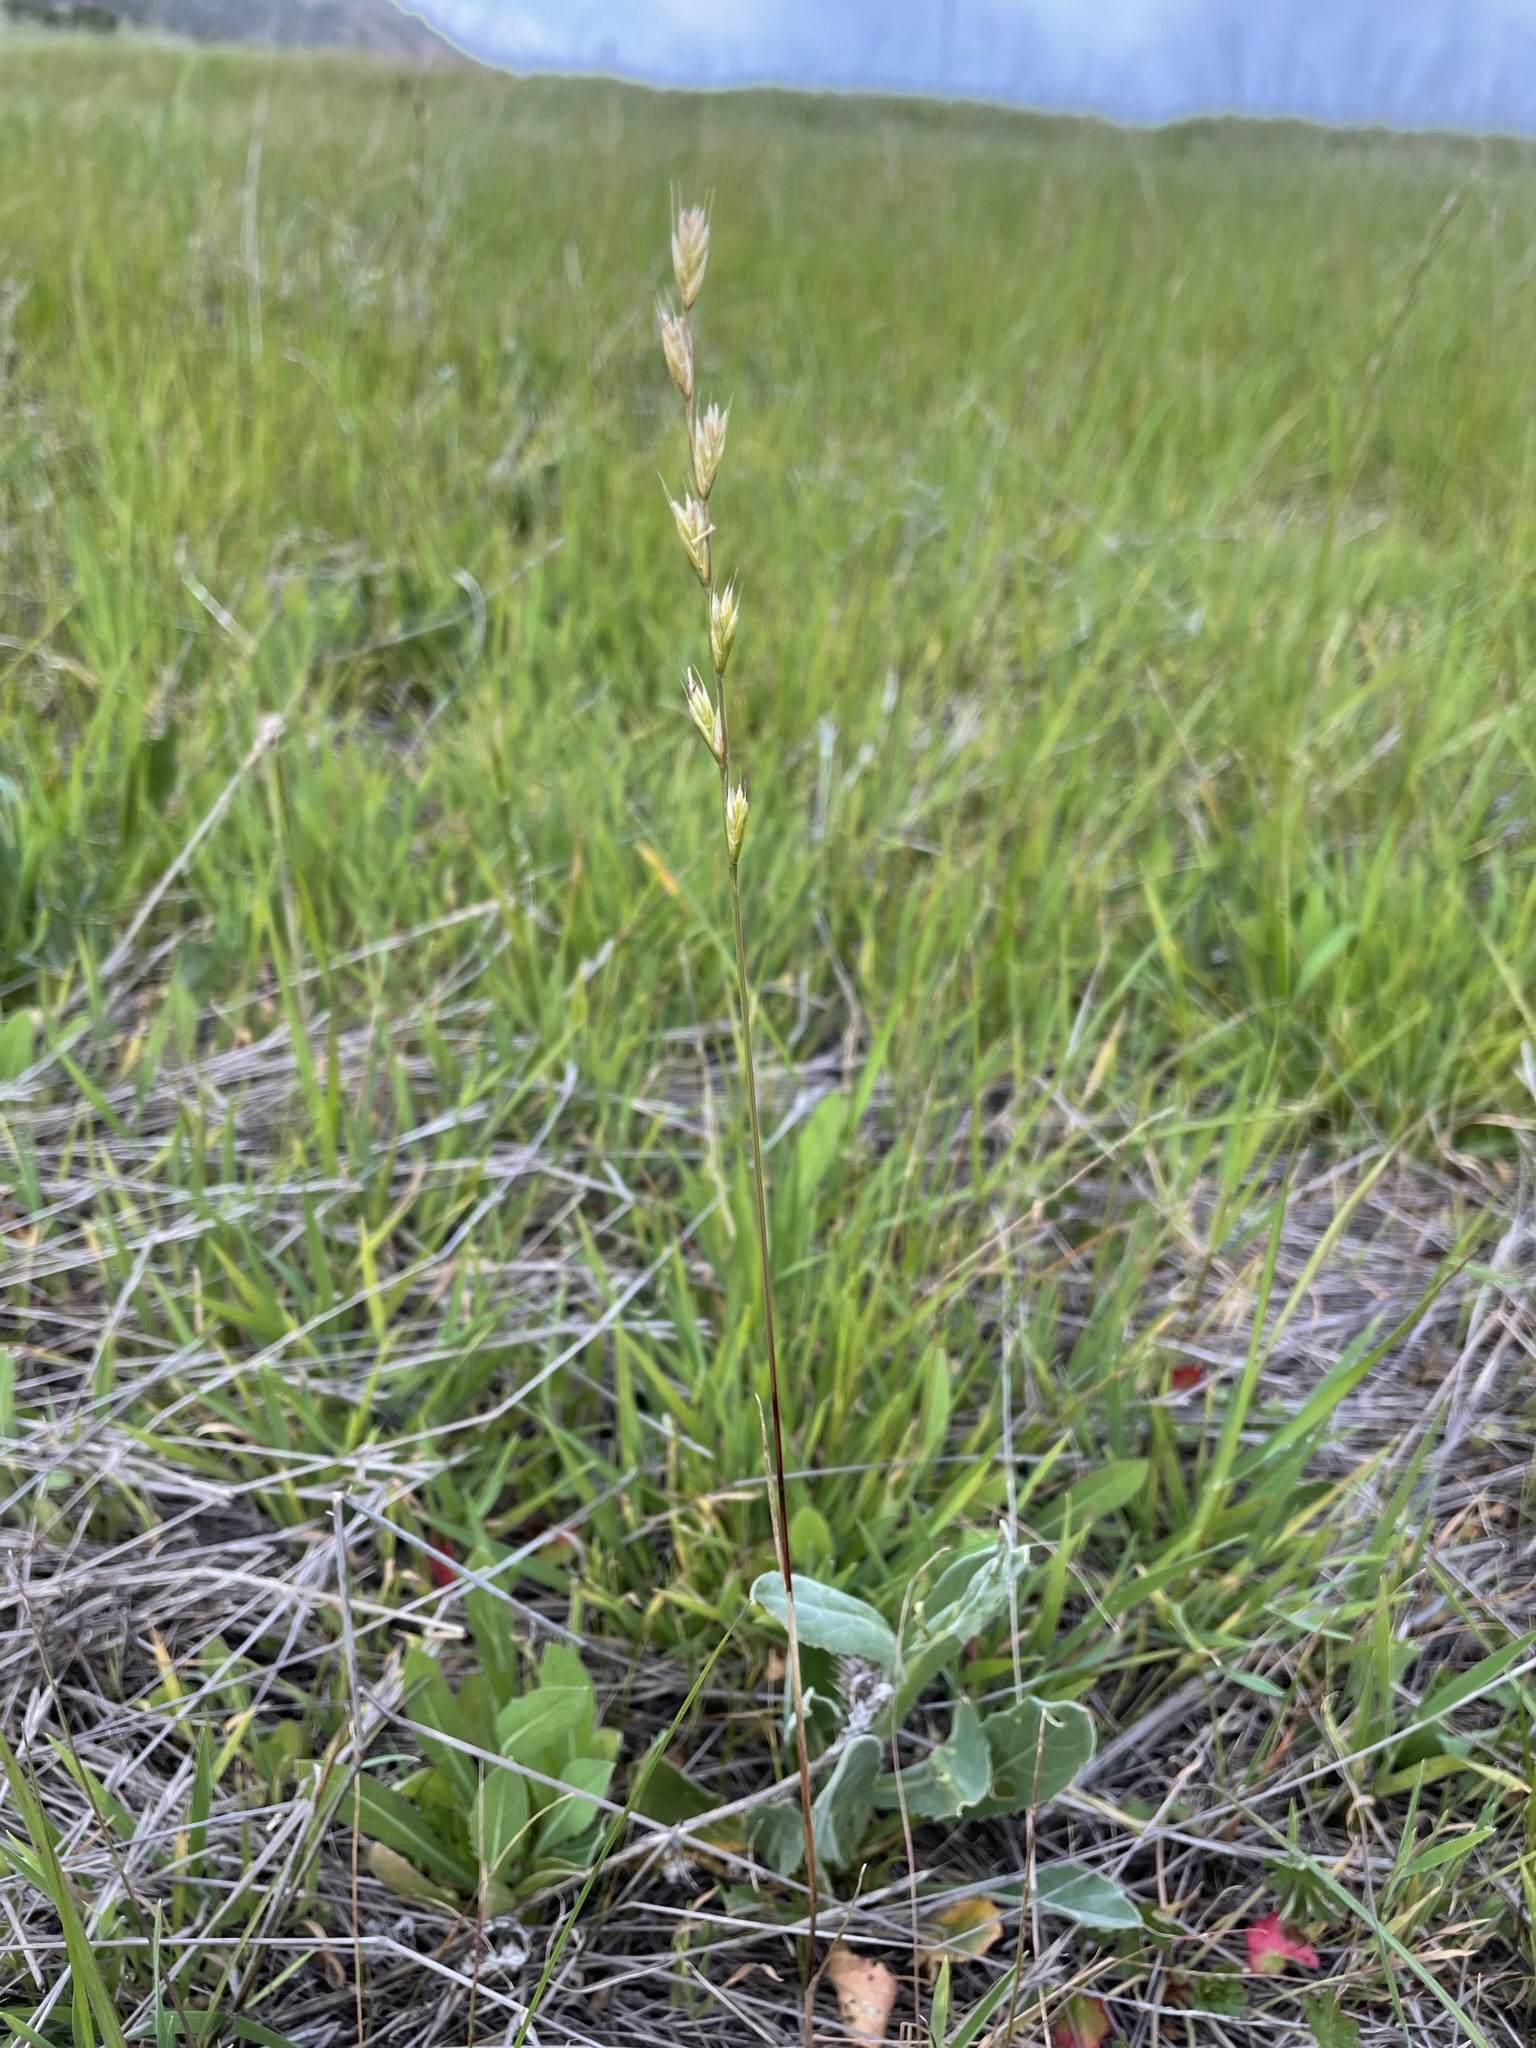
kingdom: Plantae
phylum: Tracheophyta
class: Liliopsida
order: Poales
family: Poaceae
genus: Lolium
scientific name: Lolium perenne
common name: Perennial ryegrass
